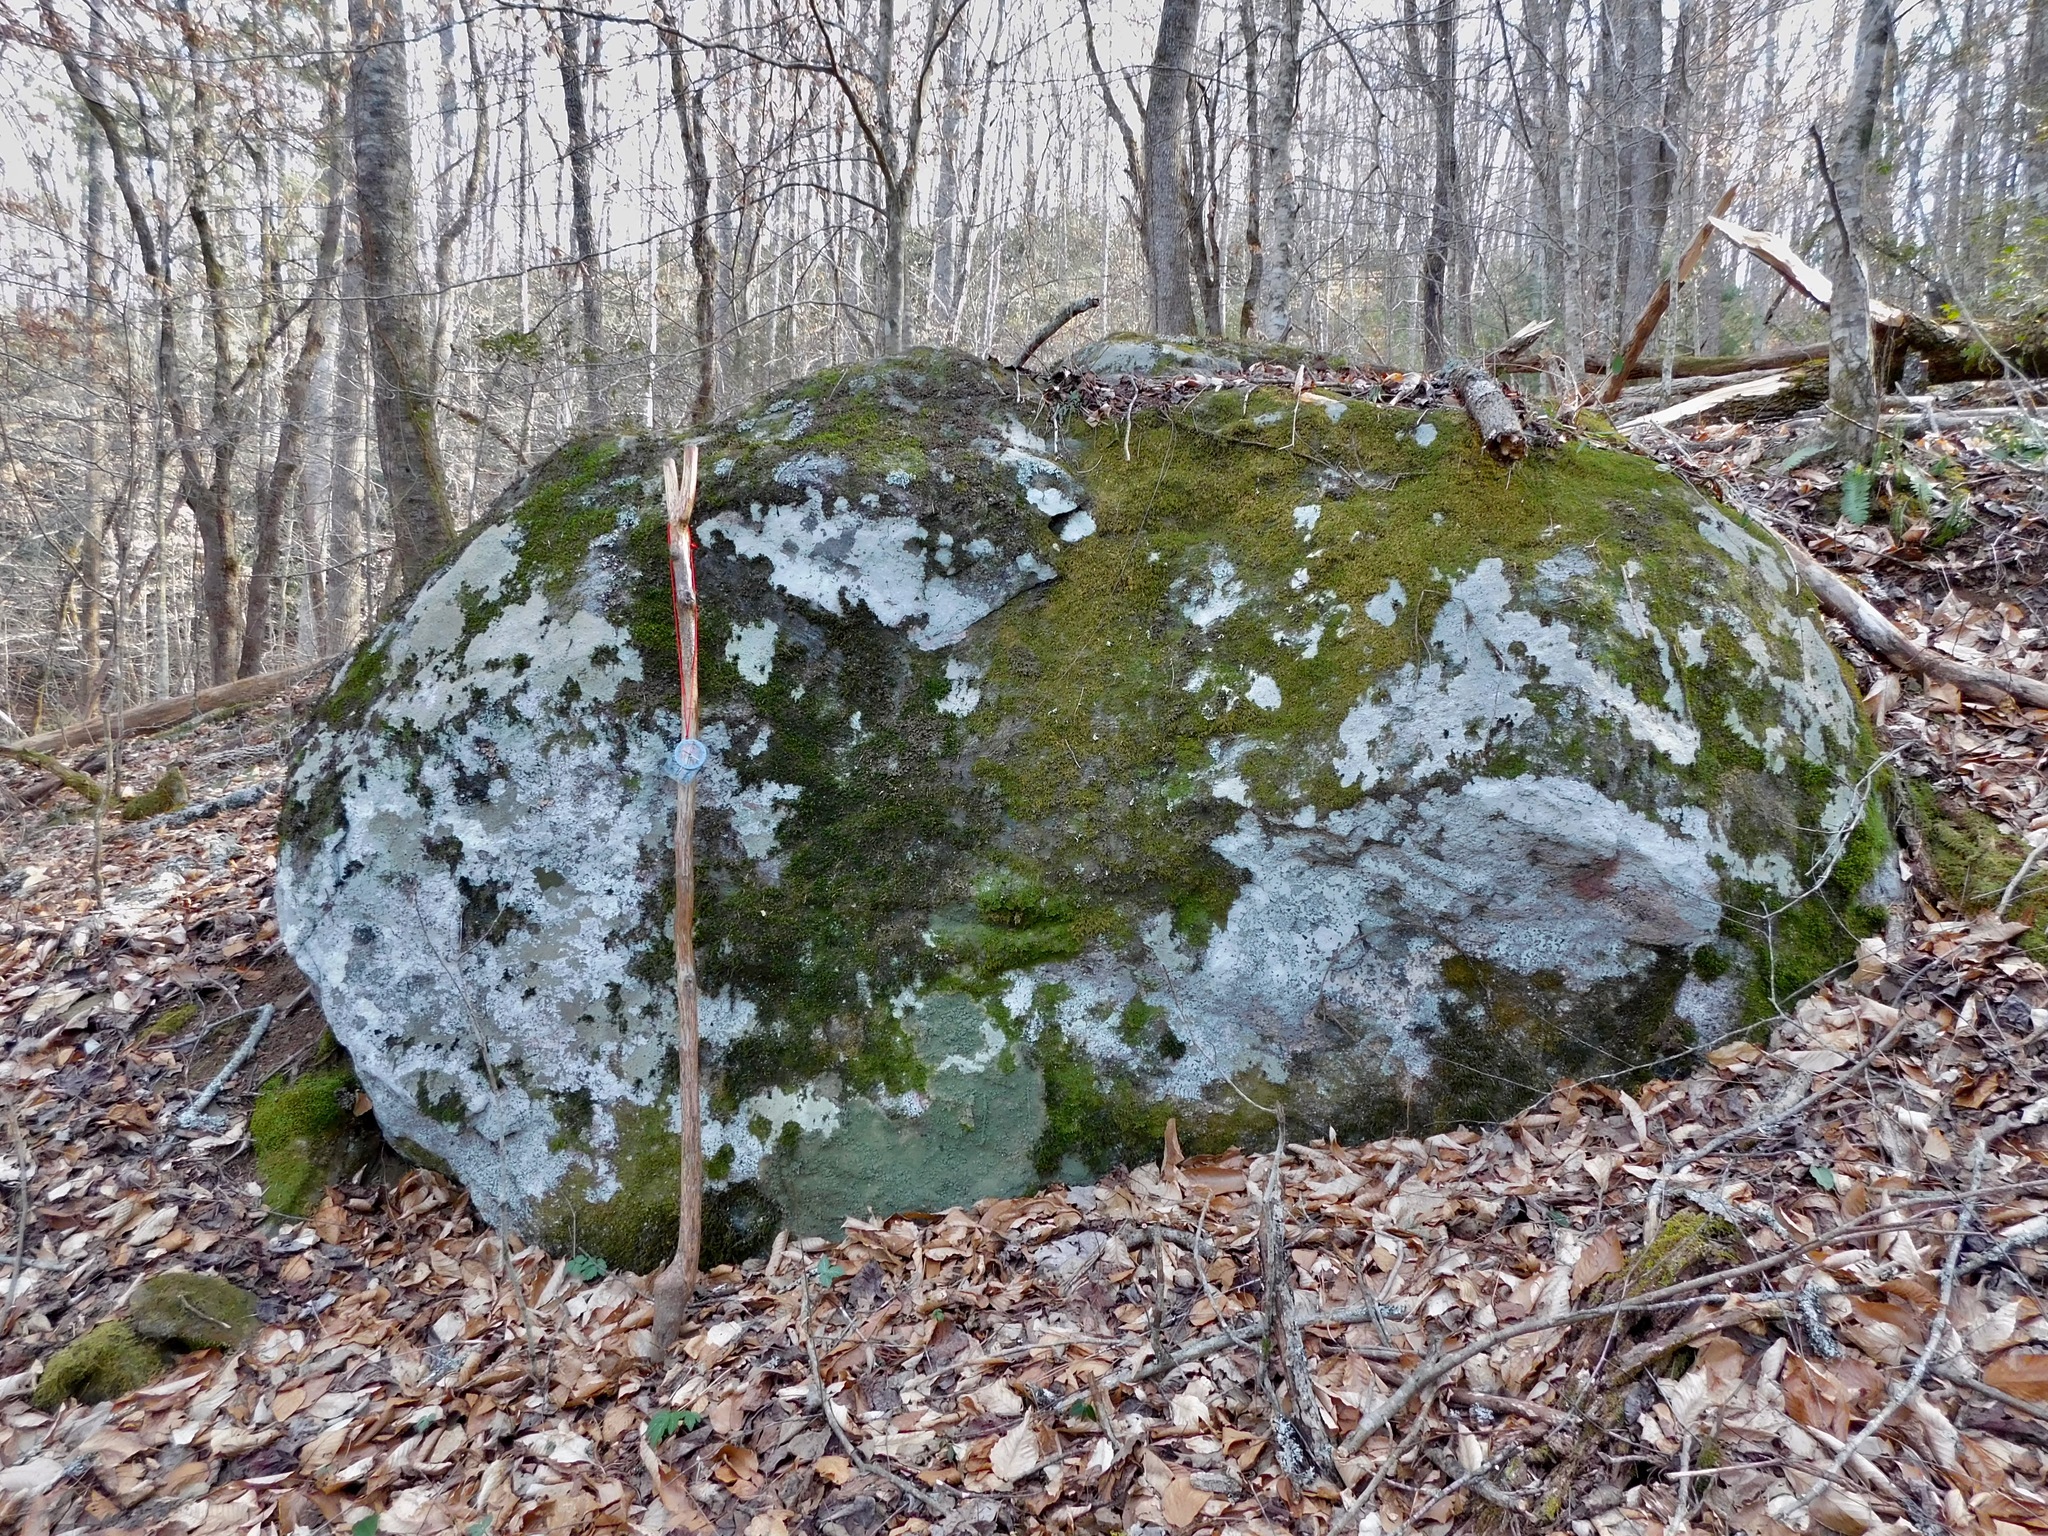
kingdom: Fungi
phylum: Ascomycota
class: Lecanoromycetes
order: Ostropales
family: Phlyctidaceae
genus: Phlyctis
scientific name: Phlyctis petraea
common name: Eggshell rock blaze
